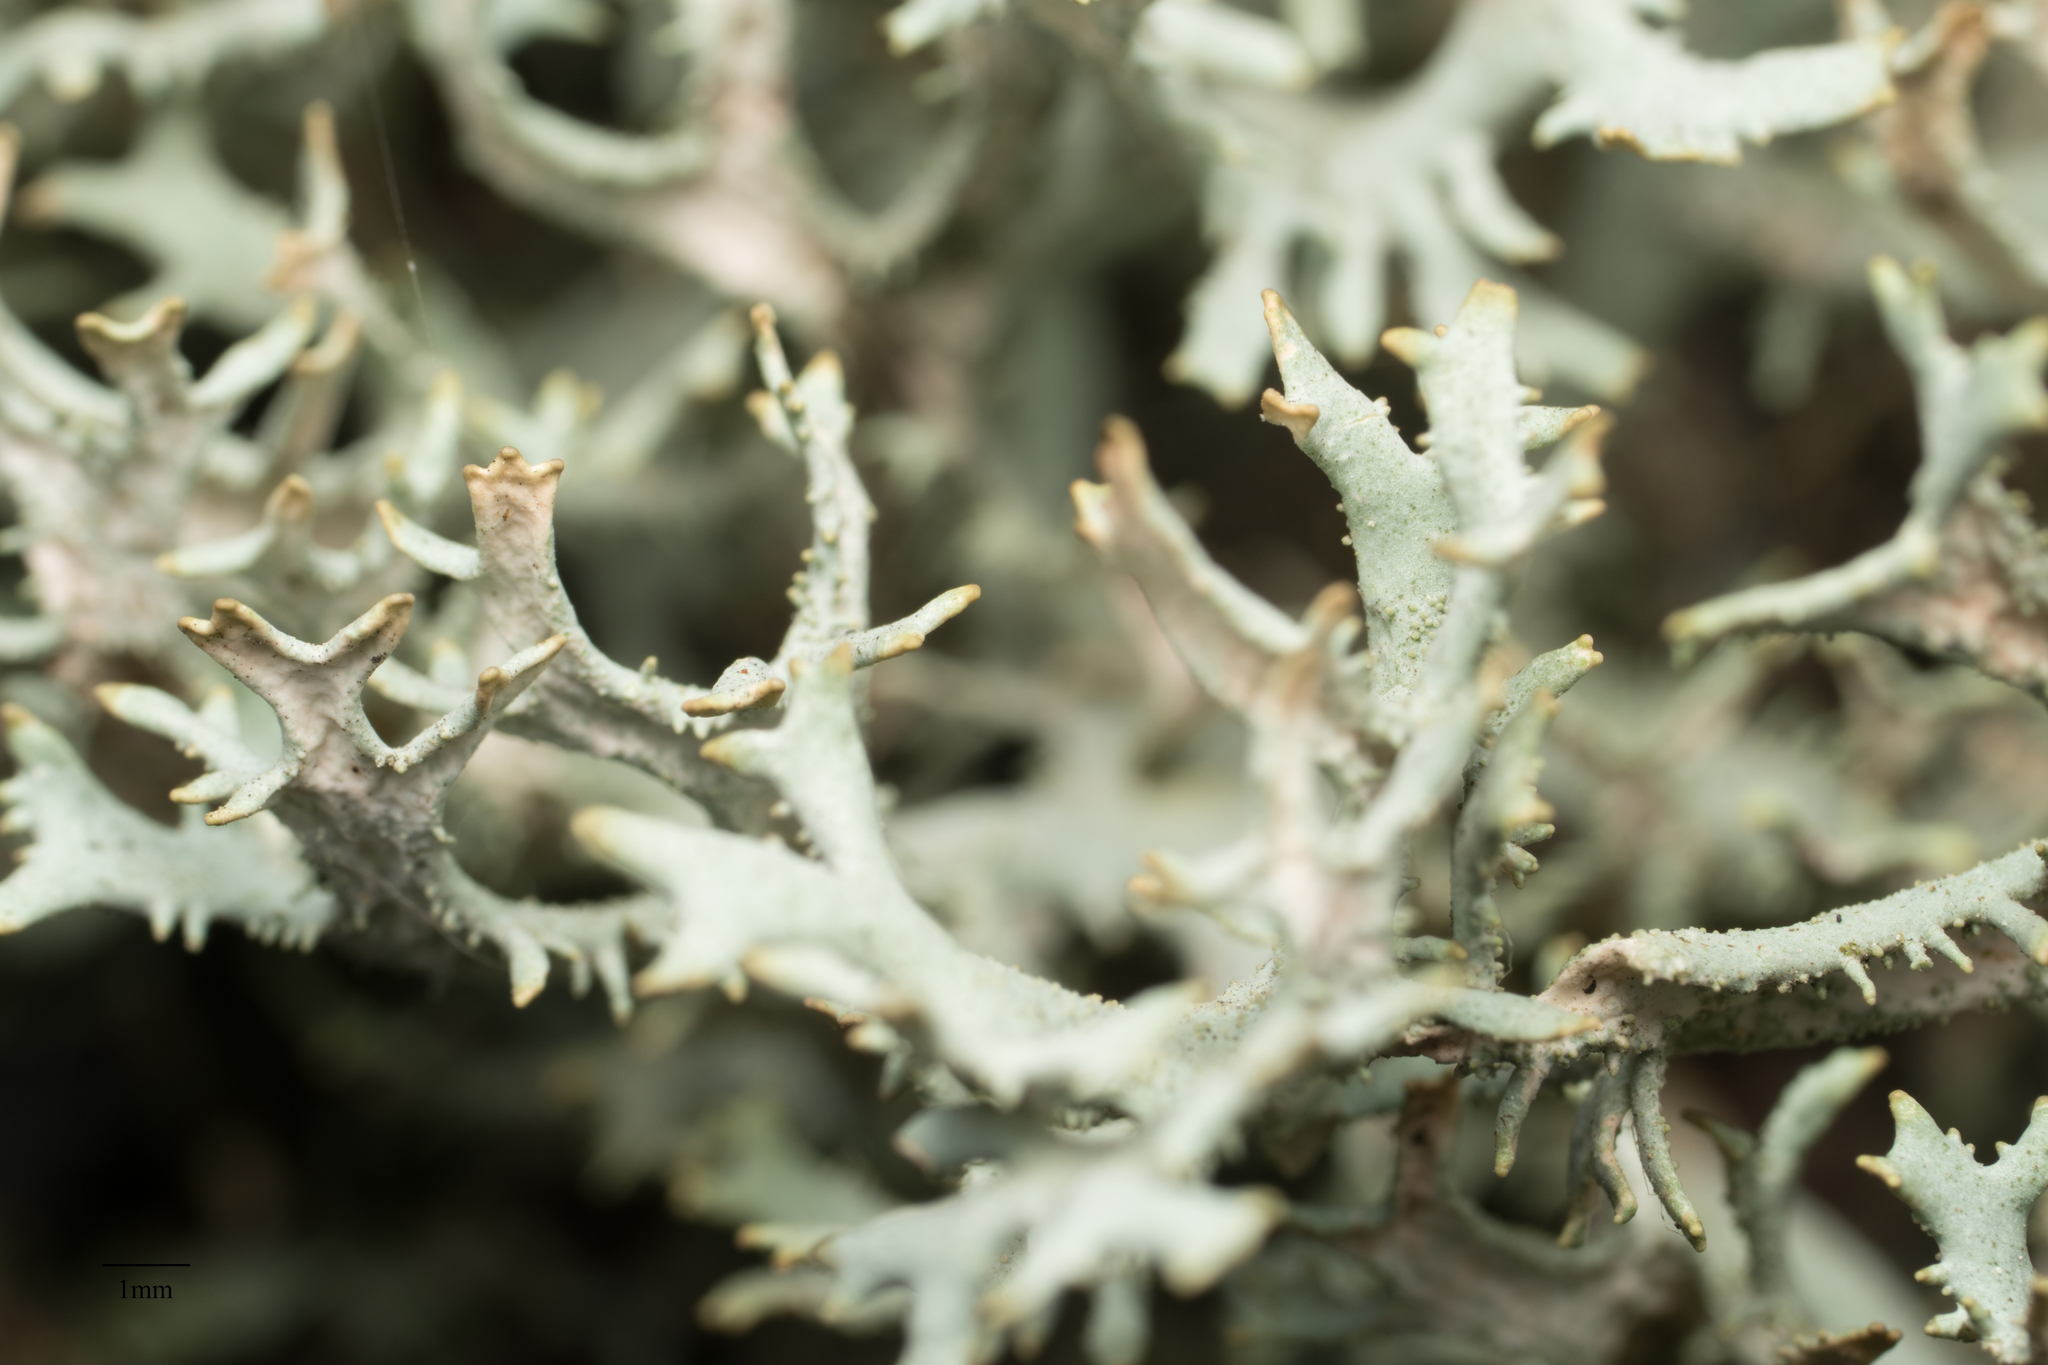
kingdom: Fungi
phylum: Ascomycota
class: Lecanoromycetes
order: Lecanorales
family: Parmeliaceae
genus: Pseudevernia
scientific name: Pseudevernia furfuracea
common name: Tree moss
